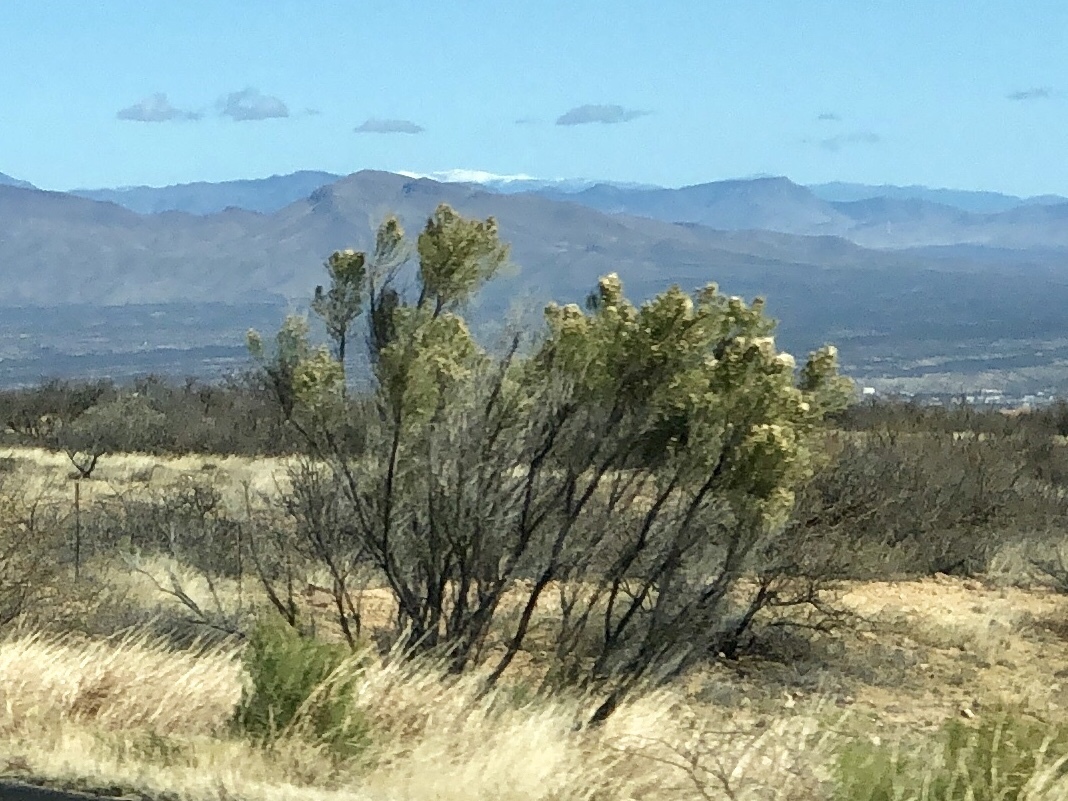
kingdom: Plantae
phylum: Tracheophyta
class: Magnoliopsida
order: Asterales
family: Asteraceae
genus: Baccharis
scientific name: Baccharis sarothroides
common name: Desert-broom
